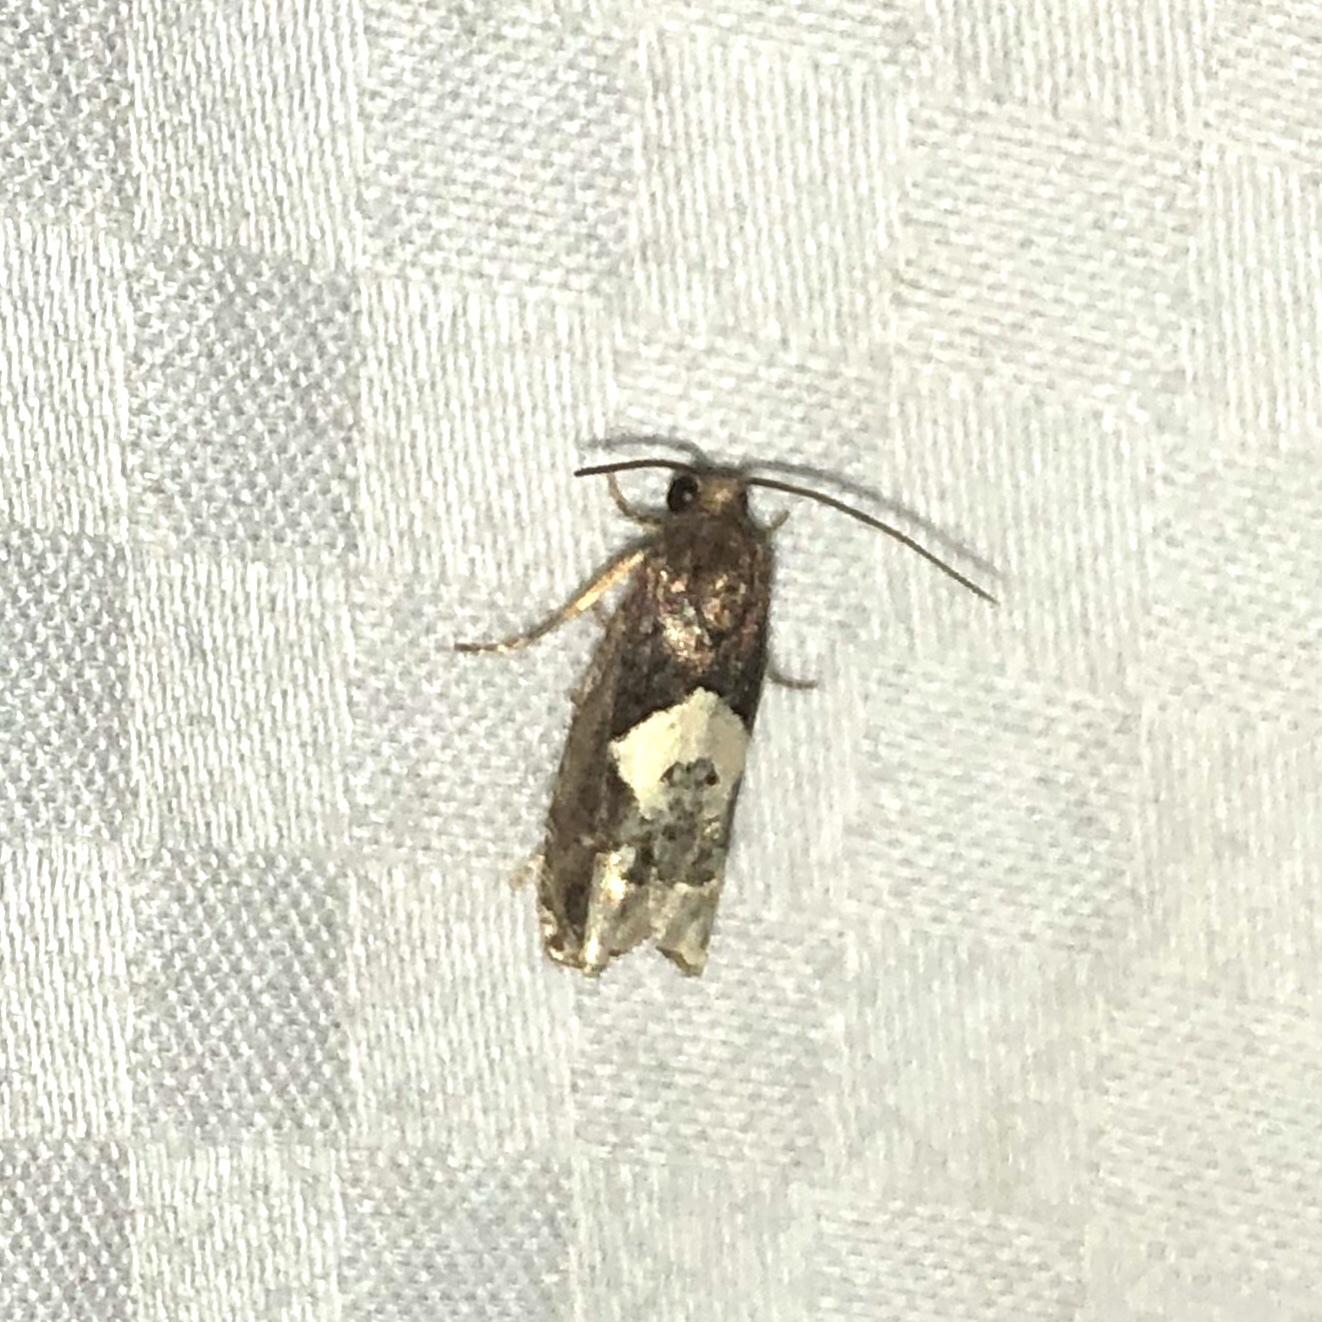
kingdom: Animalia
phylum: Arthropoda
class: Insecta
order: Lepidoptera
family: Tortricidae
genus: Epiblema
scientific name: Epiblema otiosana
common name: Bidens borer moth
